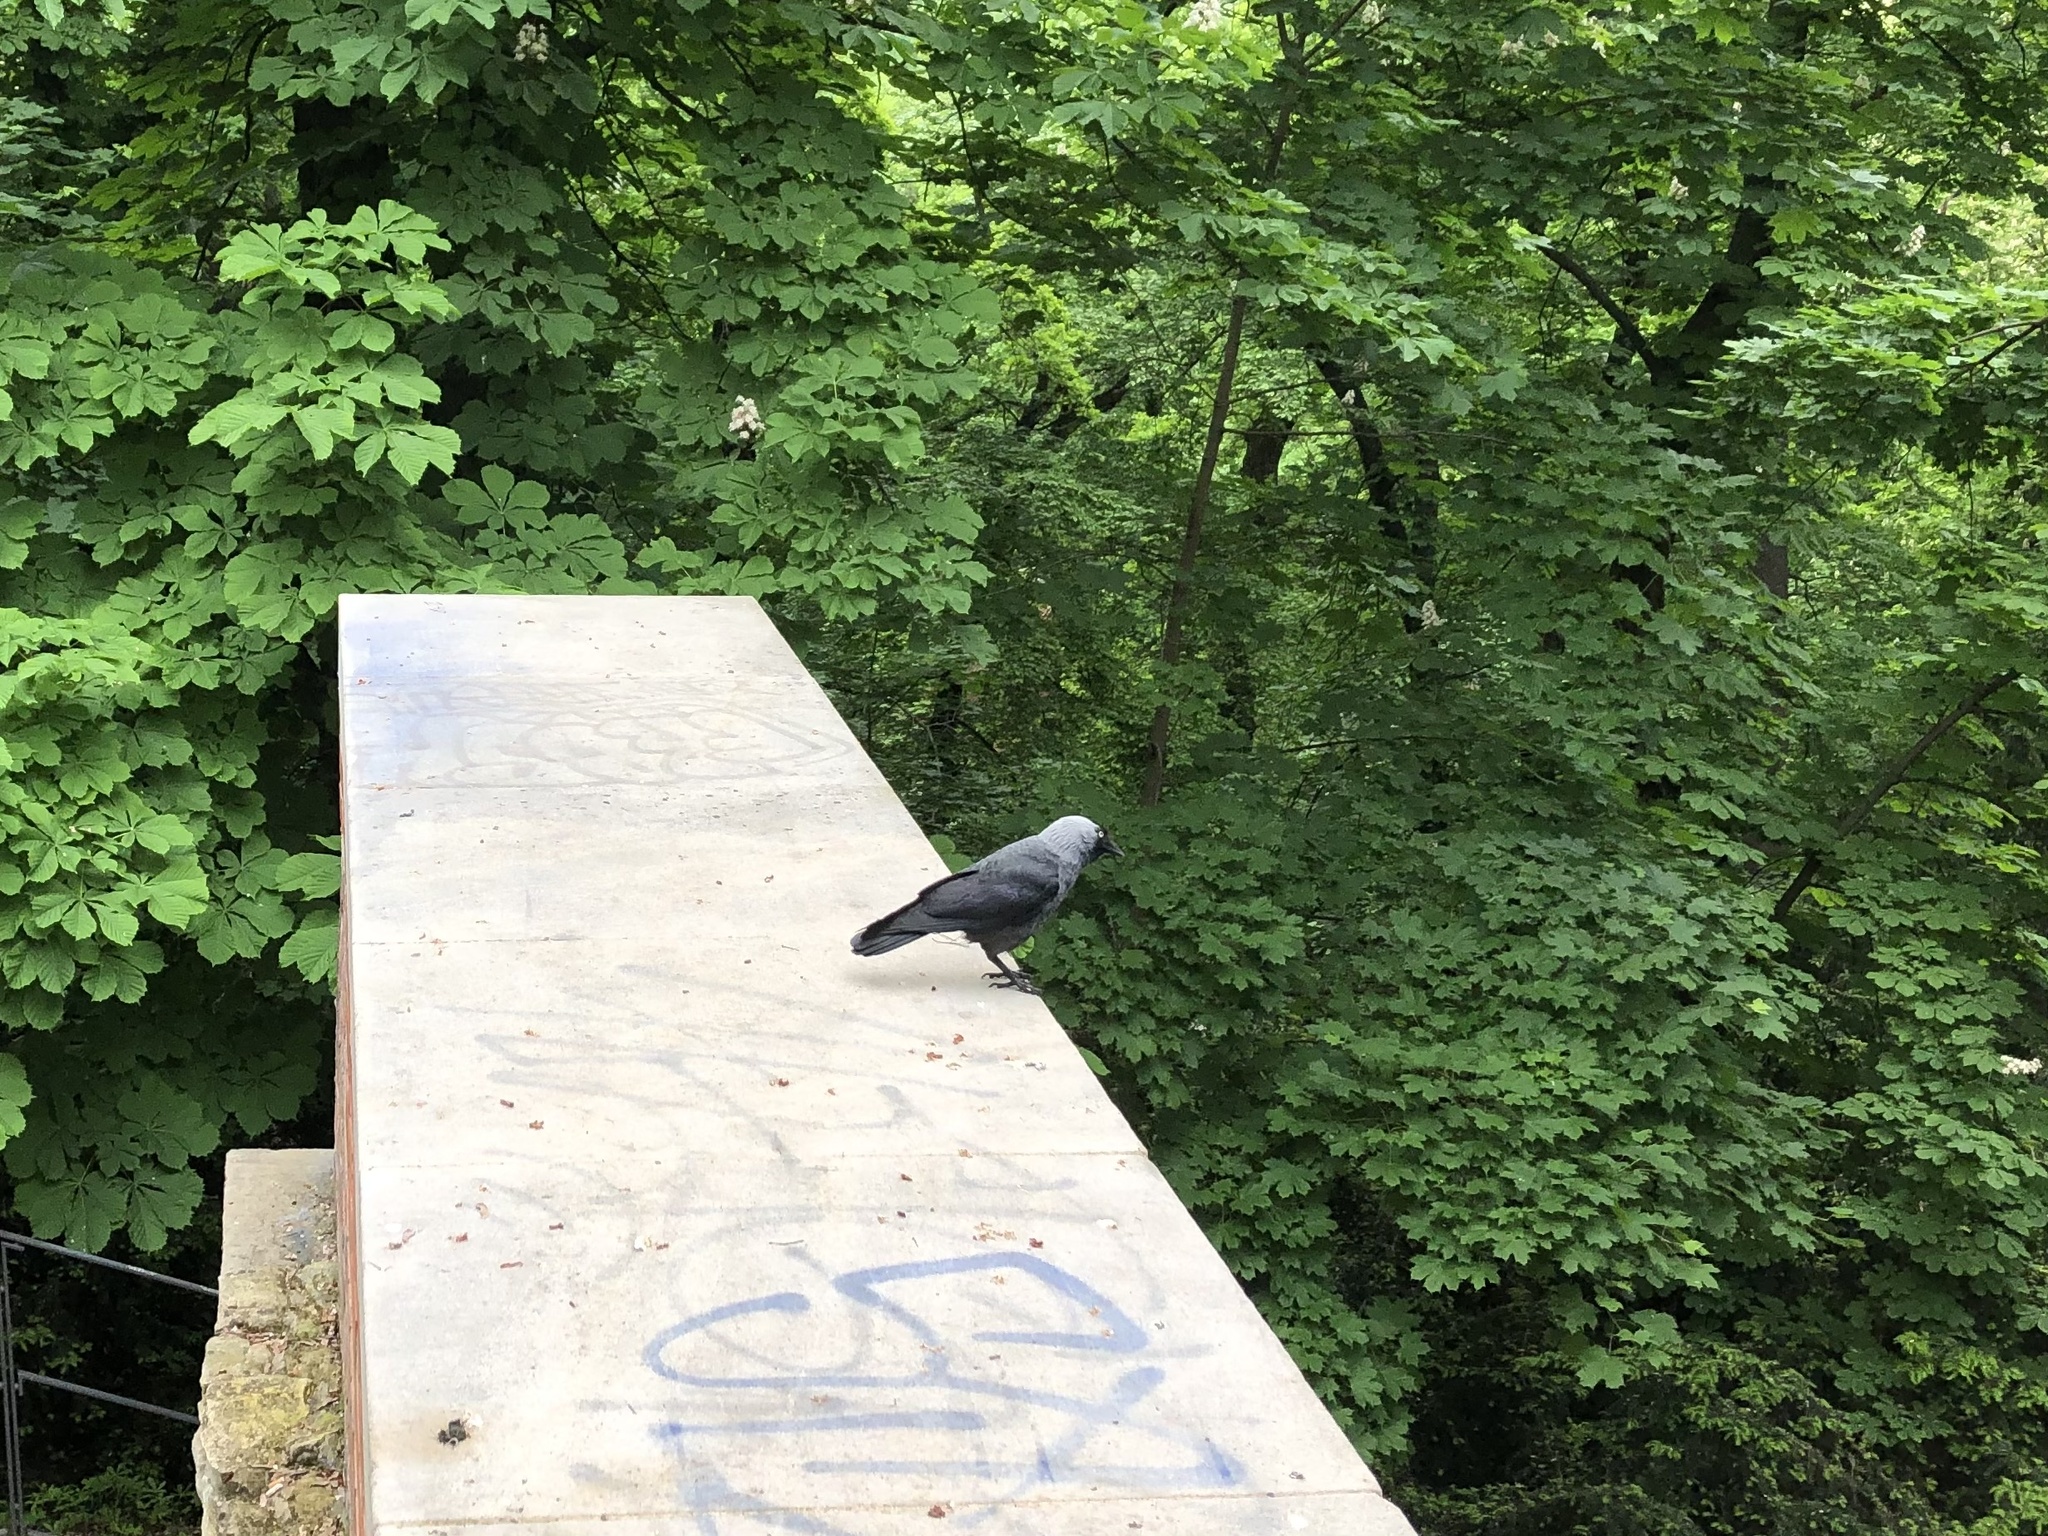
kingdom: Animalia
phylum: Chordata
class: Aves
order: Passeriformes
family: Corvidae
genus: Coloeus
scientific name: Coloeus monedula
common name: Western jackdaw
